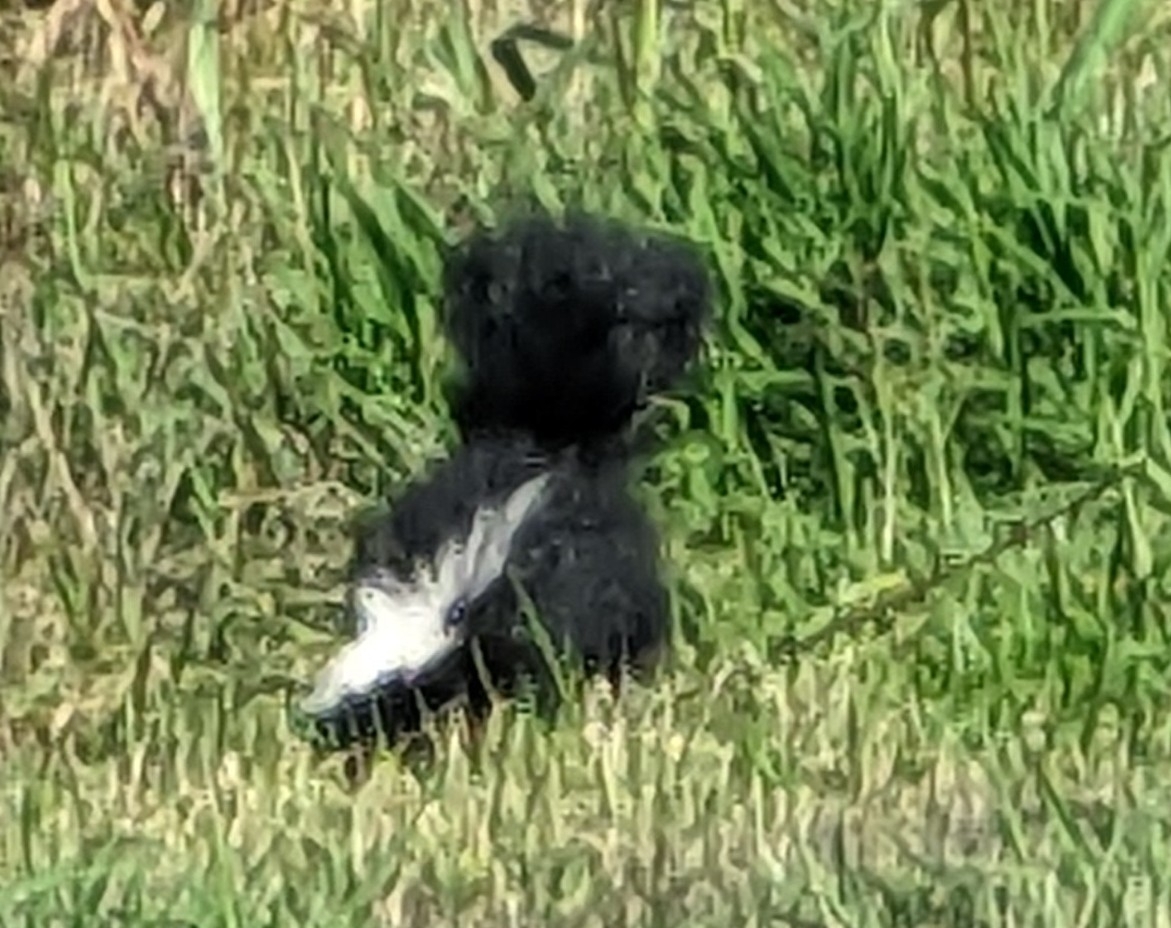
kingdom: Animalia
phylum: Chordata
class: Mammalia
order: Carnivora
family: Mephitidae
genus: Mephitis
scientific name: Mephitis mephitis
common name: Striped skunk
